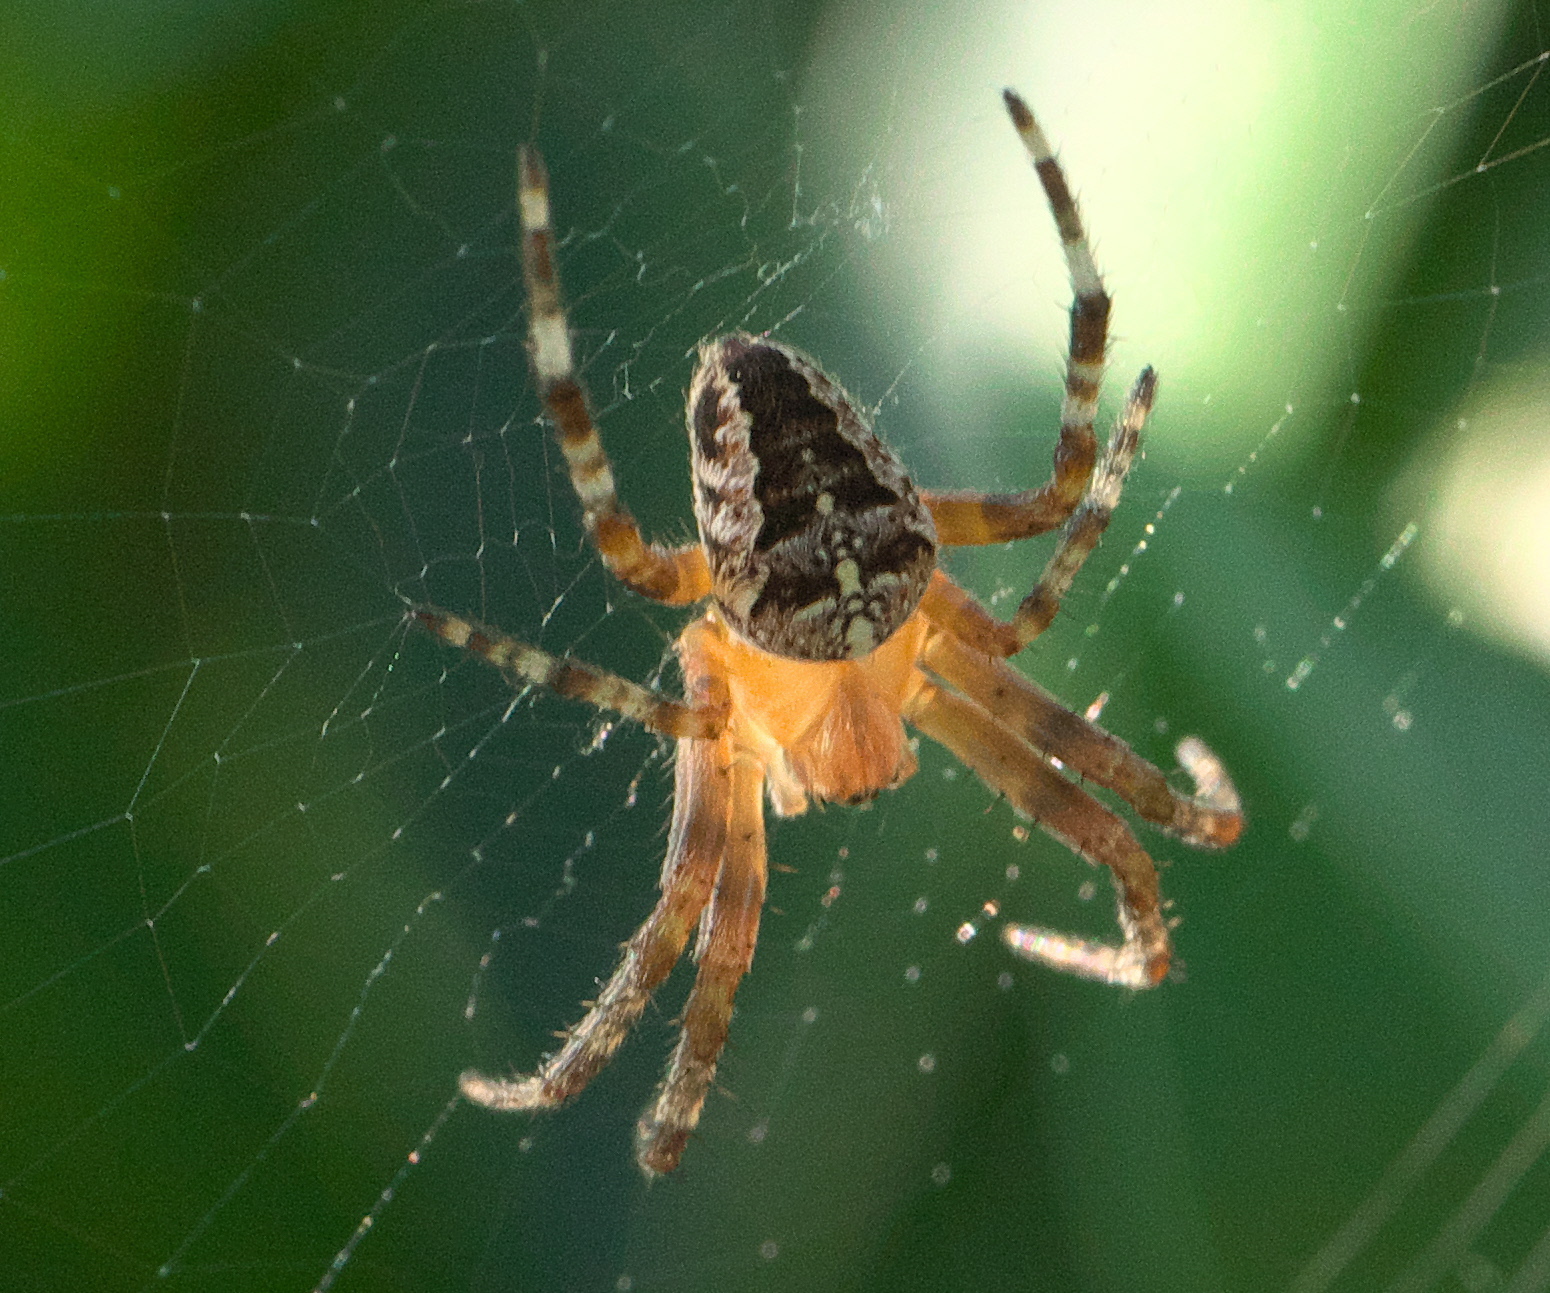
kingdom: Animalia
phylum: Arthropoda
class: Arachnida
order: Araneae
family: Araneidae
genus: Araneus
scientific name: Araneus diadematus
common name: Cross orbweaver
